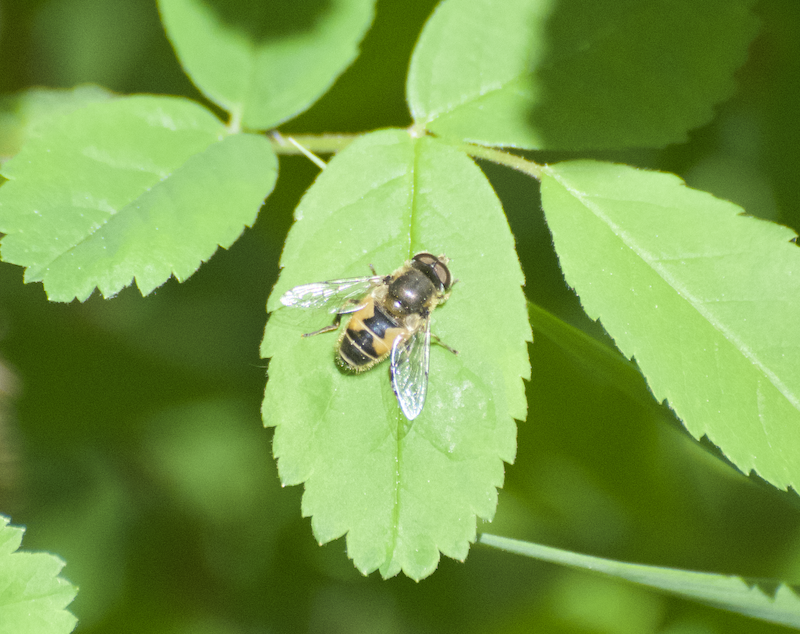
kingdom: Animalia
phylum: Arthropoda
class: Insecta
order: Diptera
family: Syrphidae
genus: Eristalis
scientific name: Eristalis arbustorum
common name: Hover fly
